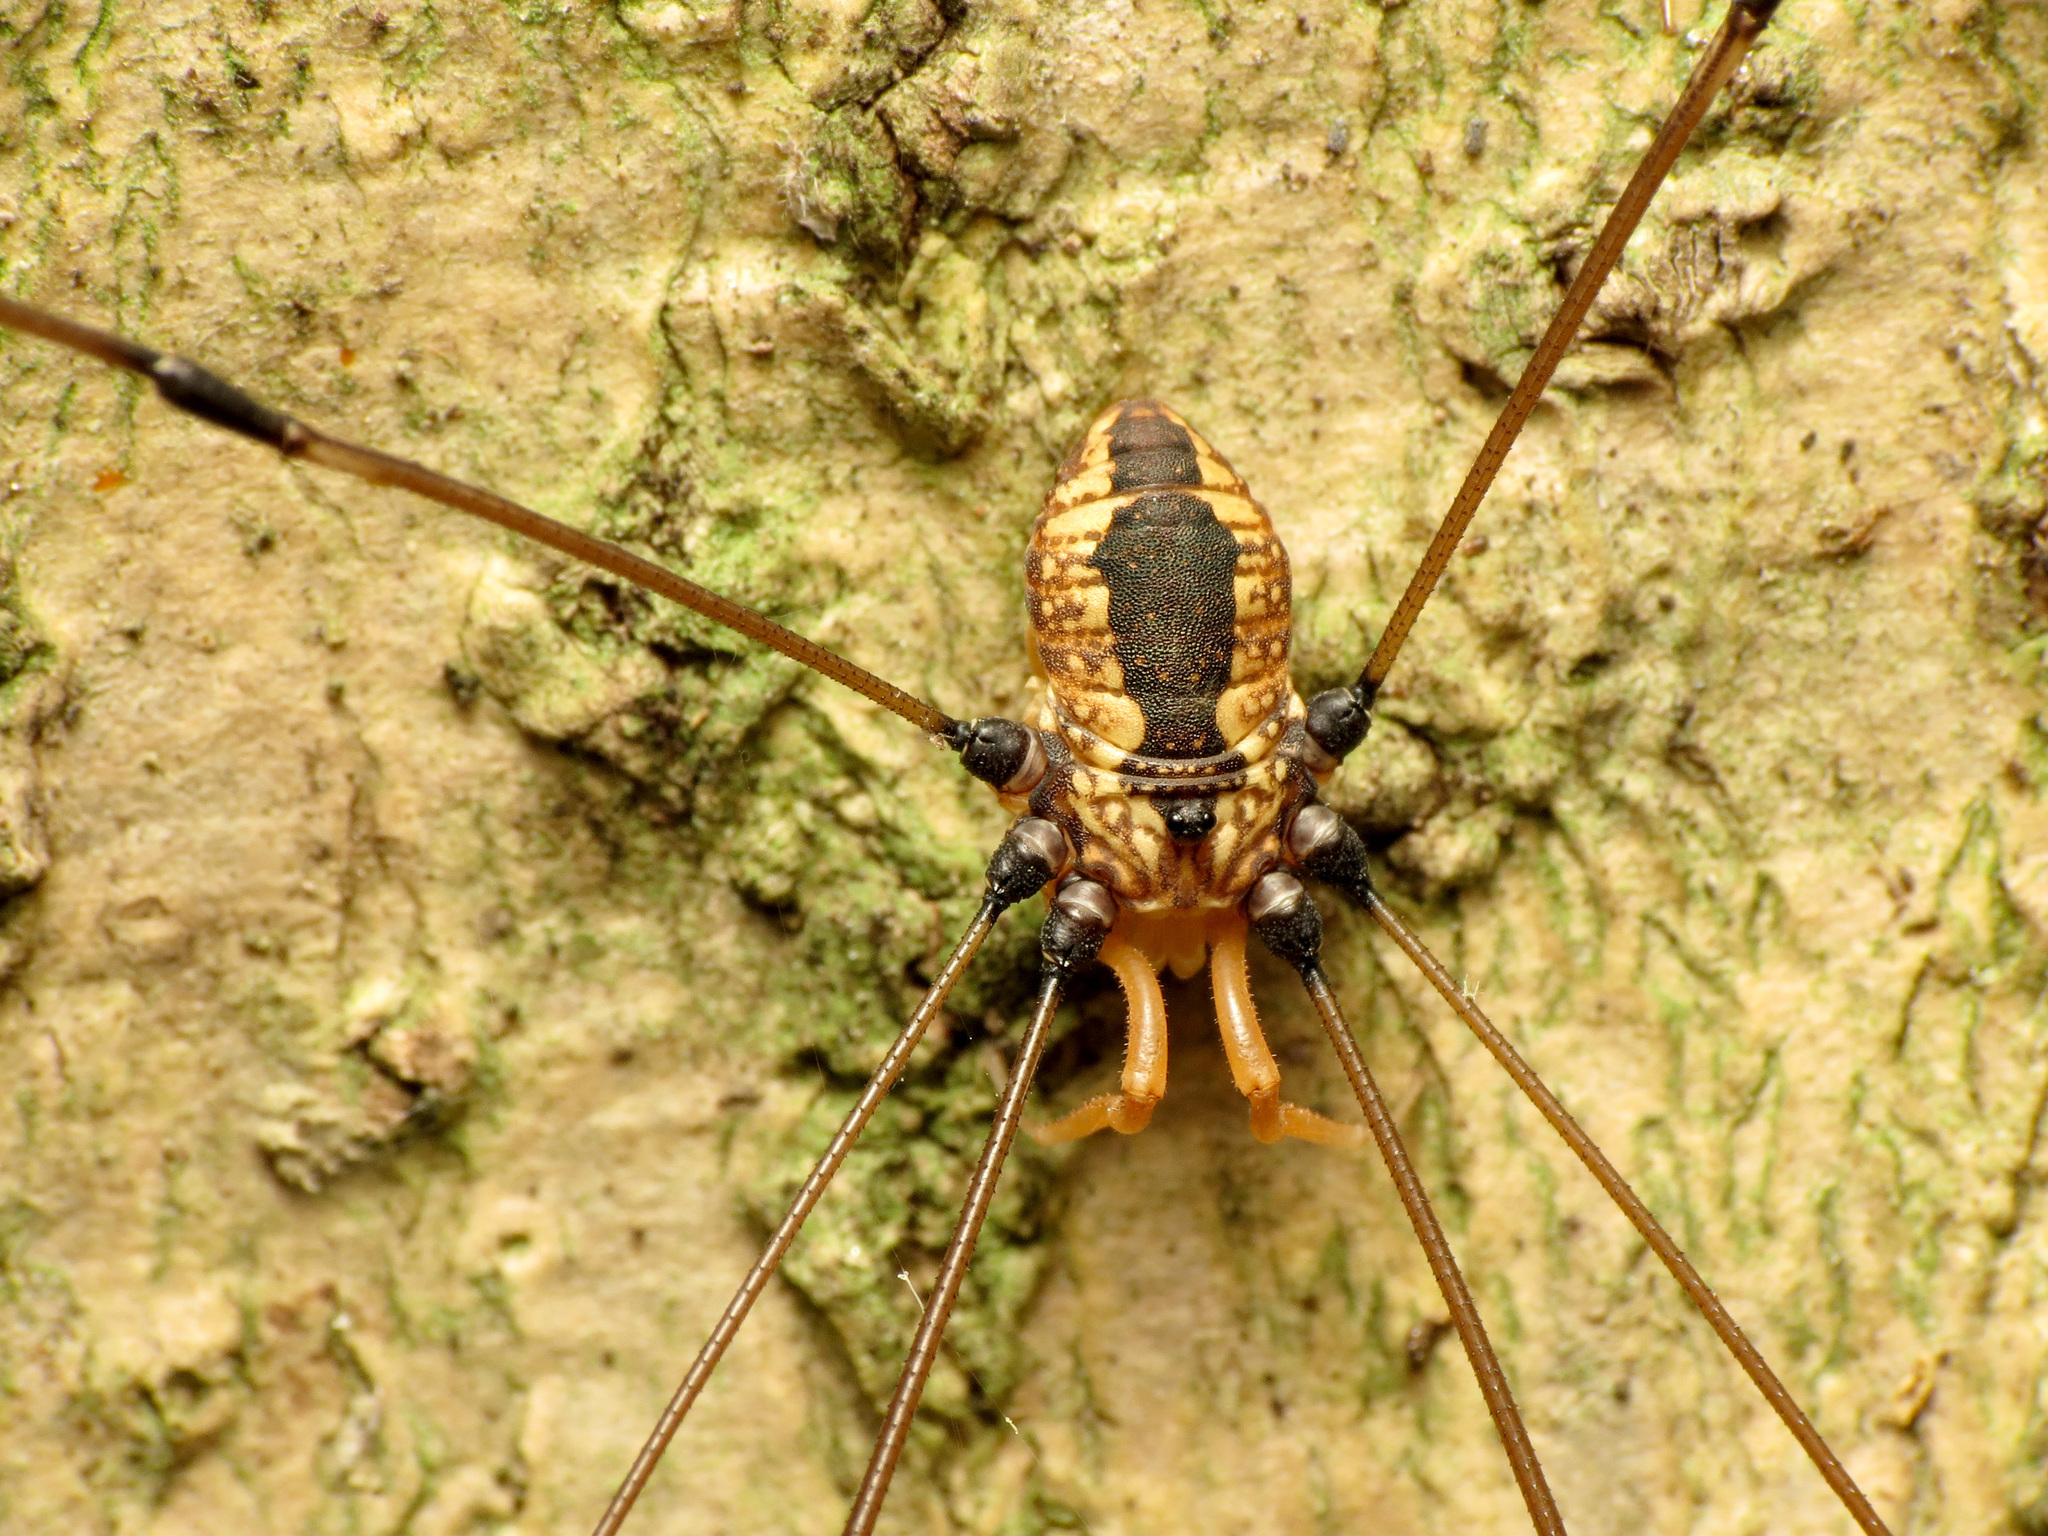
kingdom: Animalia
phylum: Arthropoda
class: Arachnida
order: Opiliones
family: Sclerosomatidae
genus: Leiobunum
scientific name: Leiobunum vittatum
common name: Eastern harvestman
